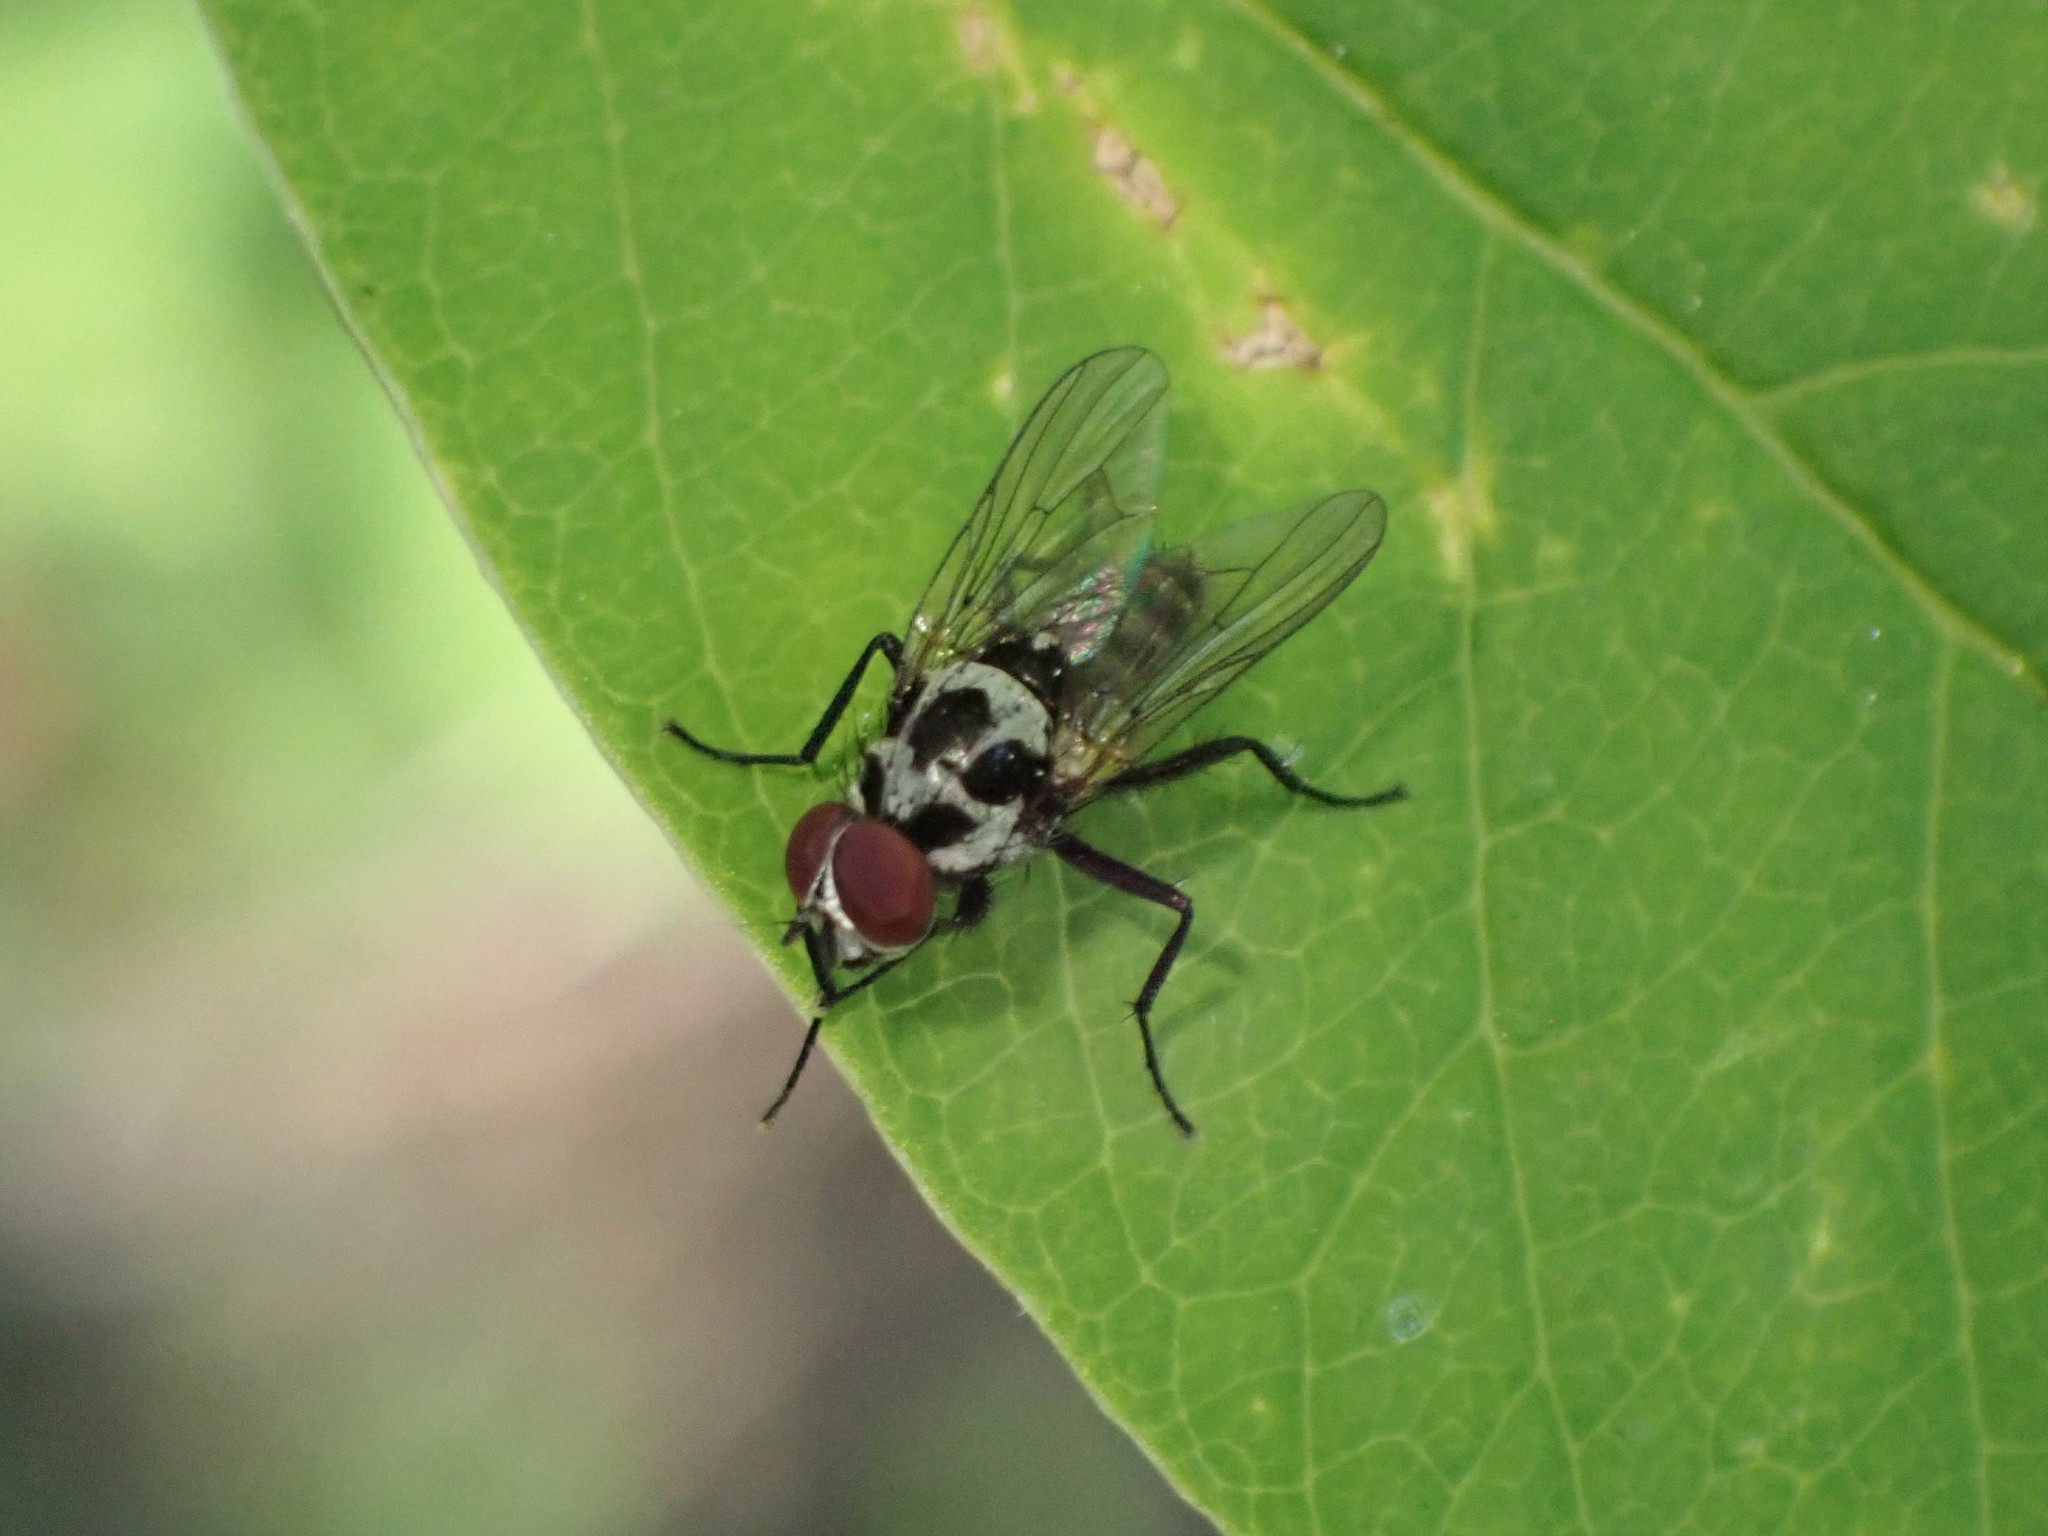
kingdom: Animalia
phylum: Arthropoda
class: Insecta
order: Diptera
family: Anthomyiidae
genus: Anthomyia
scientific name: Anthomyia procellaris
